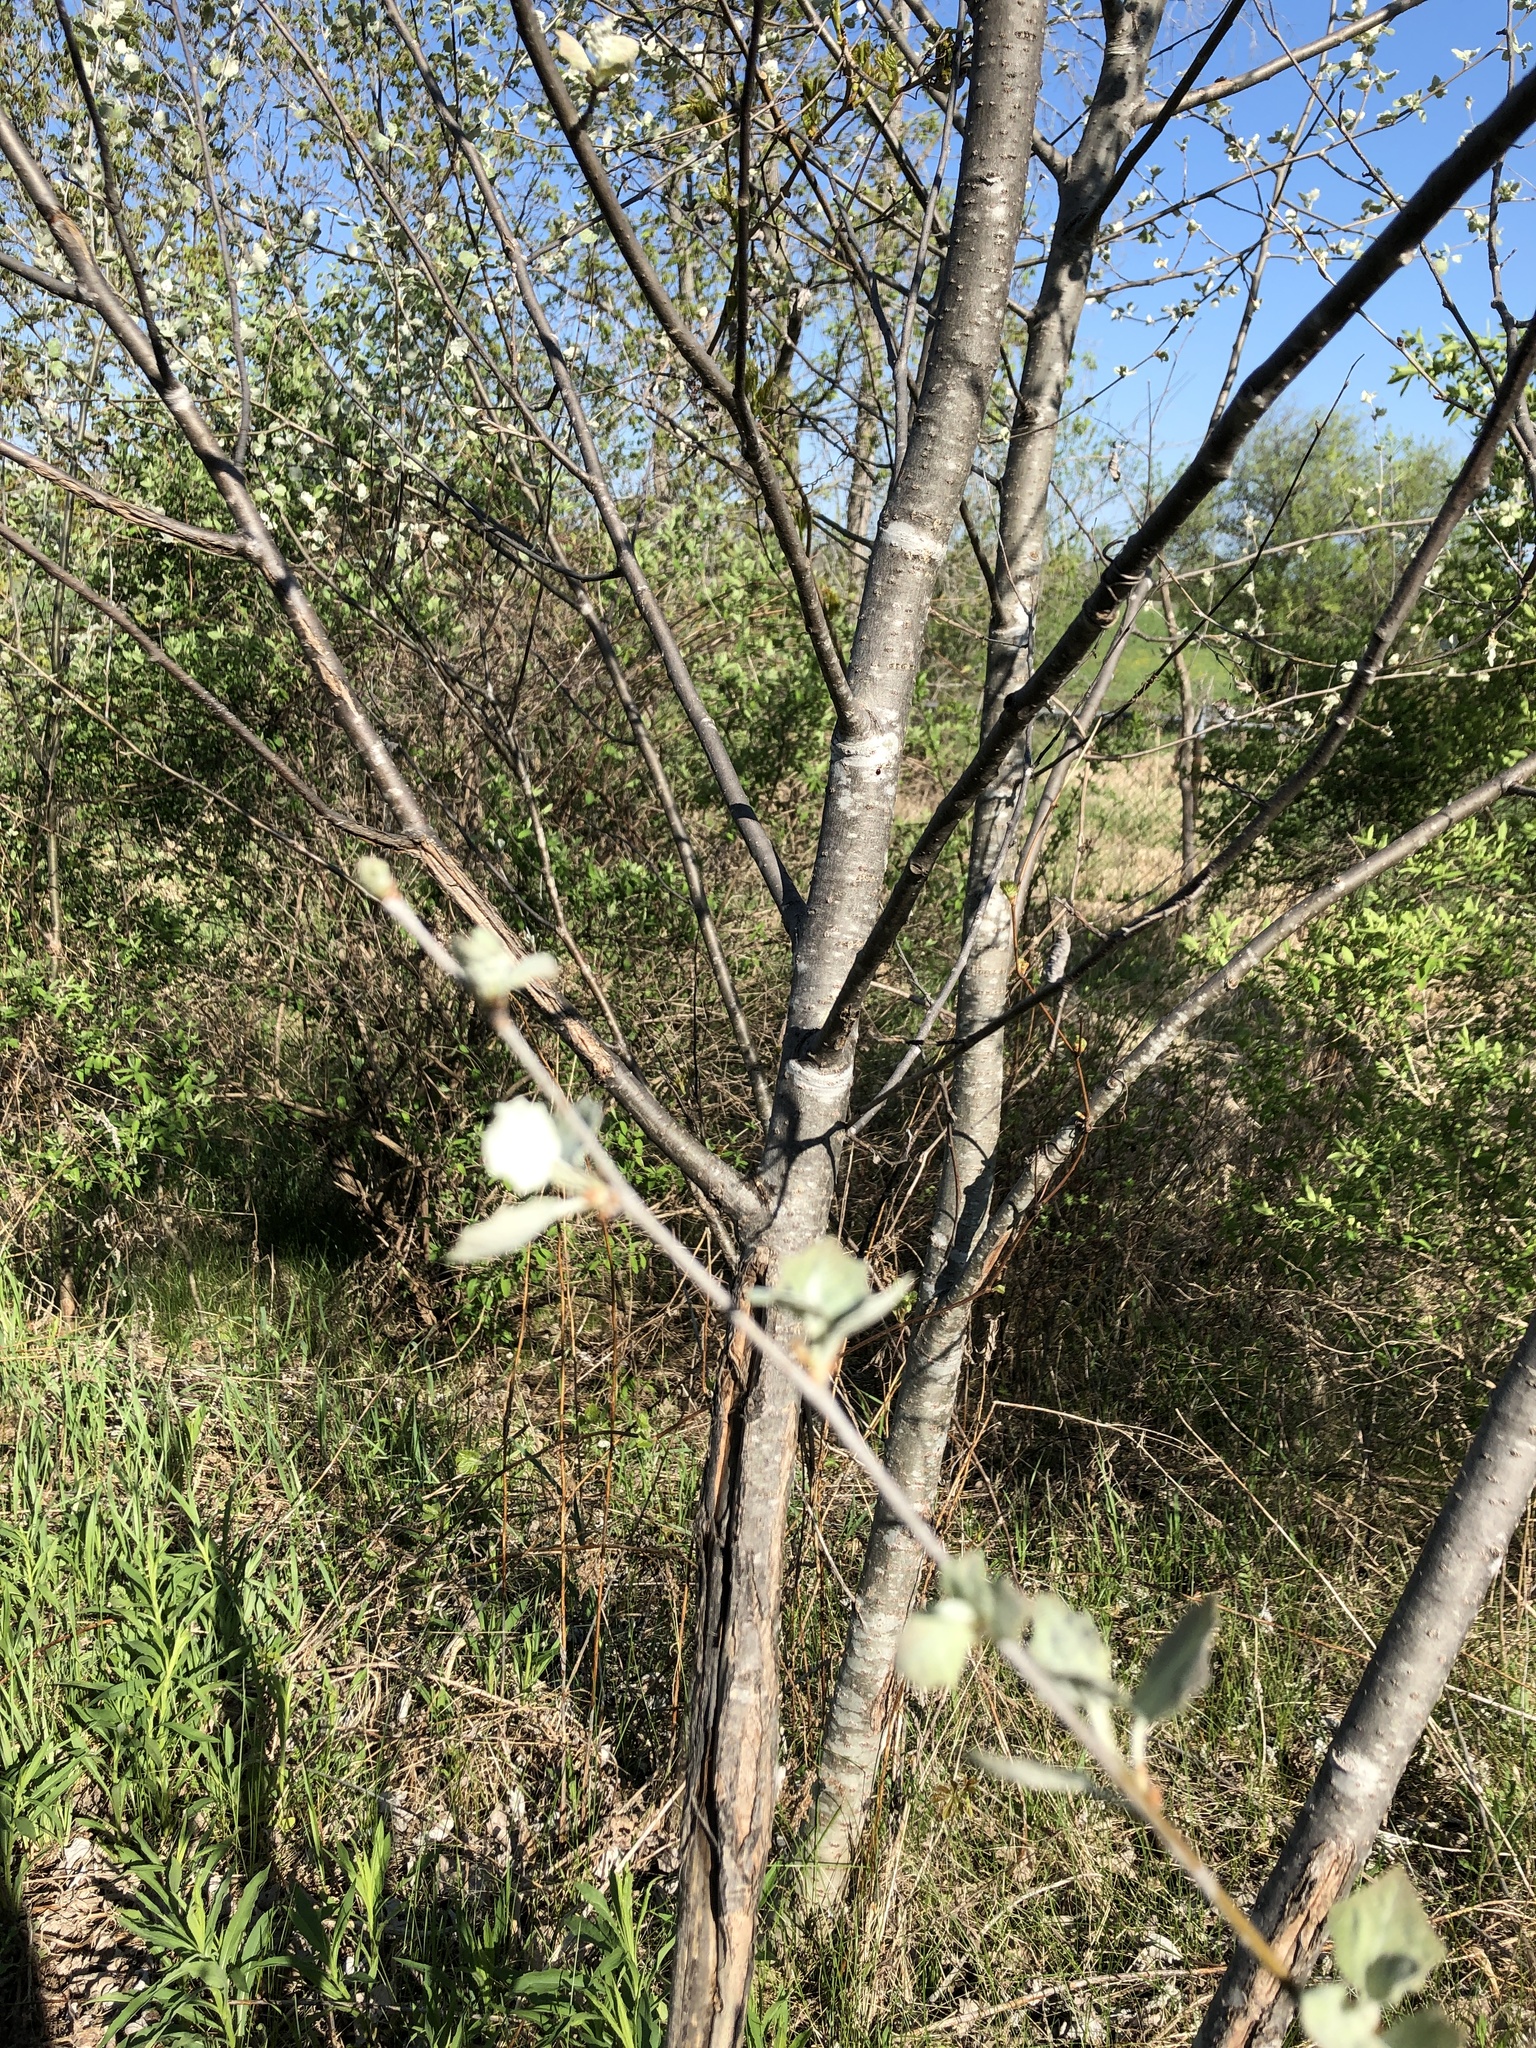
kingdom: Plantae
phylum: Tracheophyta
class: Magnoliopsida
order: Malpighiales
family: Salicaceae
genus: Populus
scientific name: Populus alba
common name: White poplar
